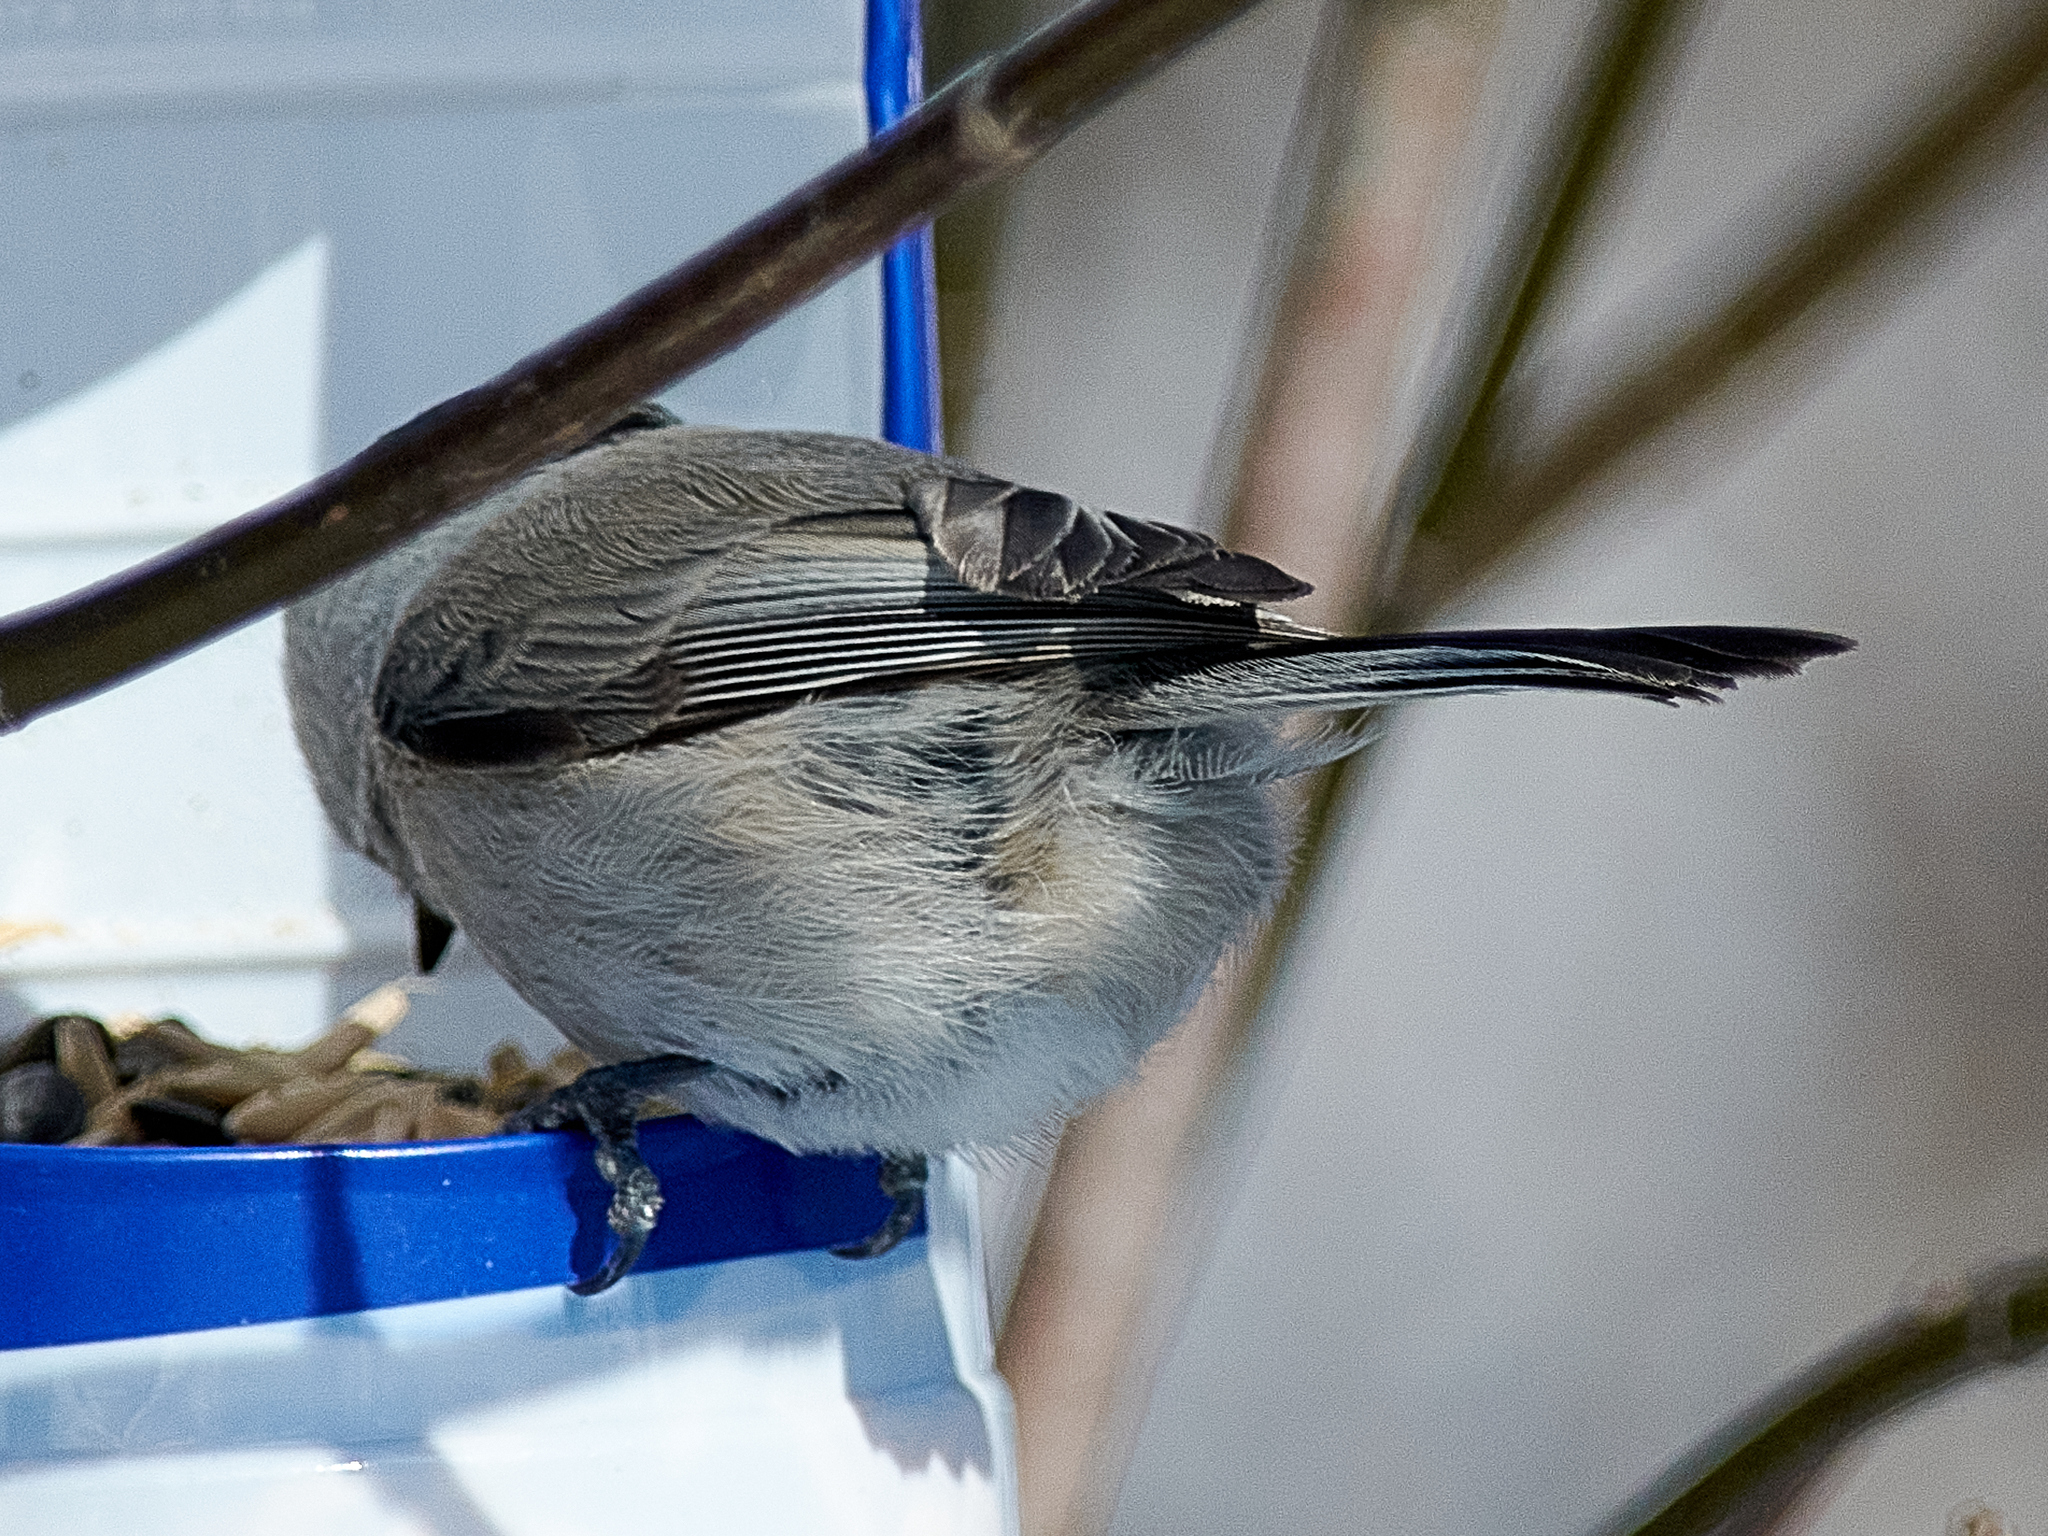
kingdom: Animalia
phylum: Chordata
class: Aves
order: Passeriformes
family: Paridae
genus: Poecile
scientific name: Poecile palustris
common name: Marsh tit
